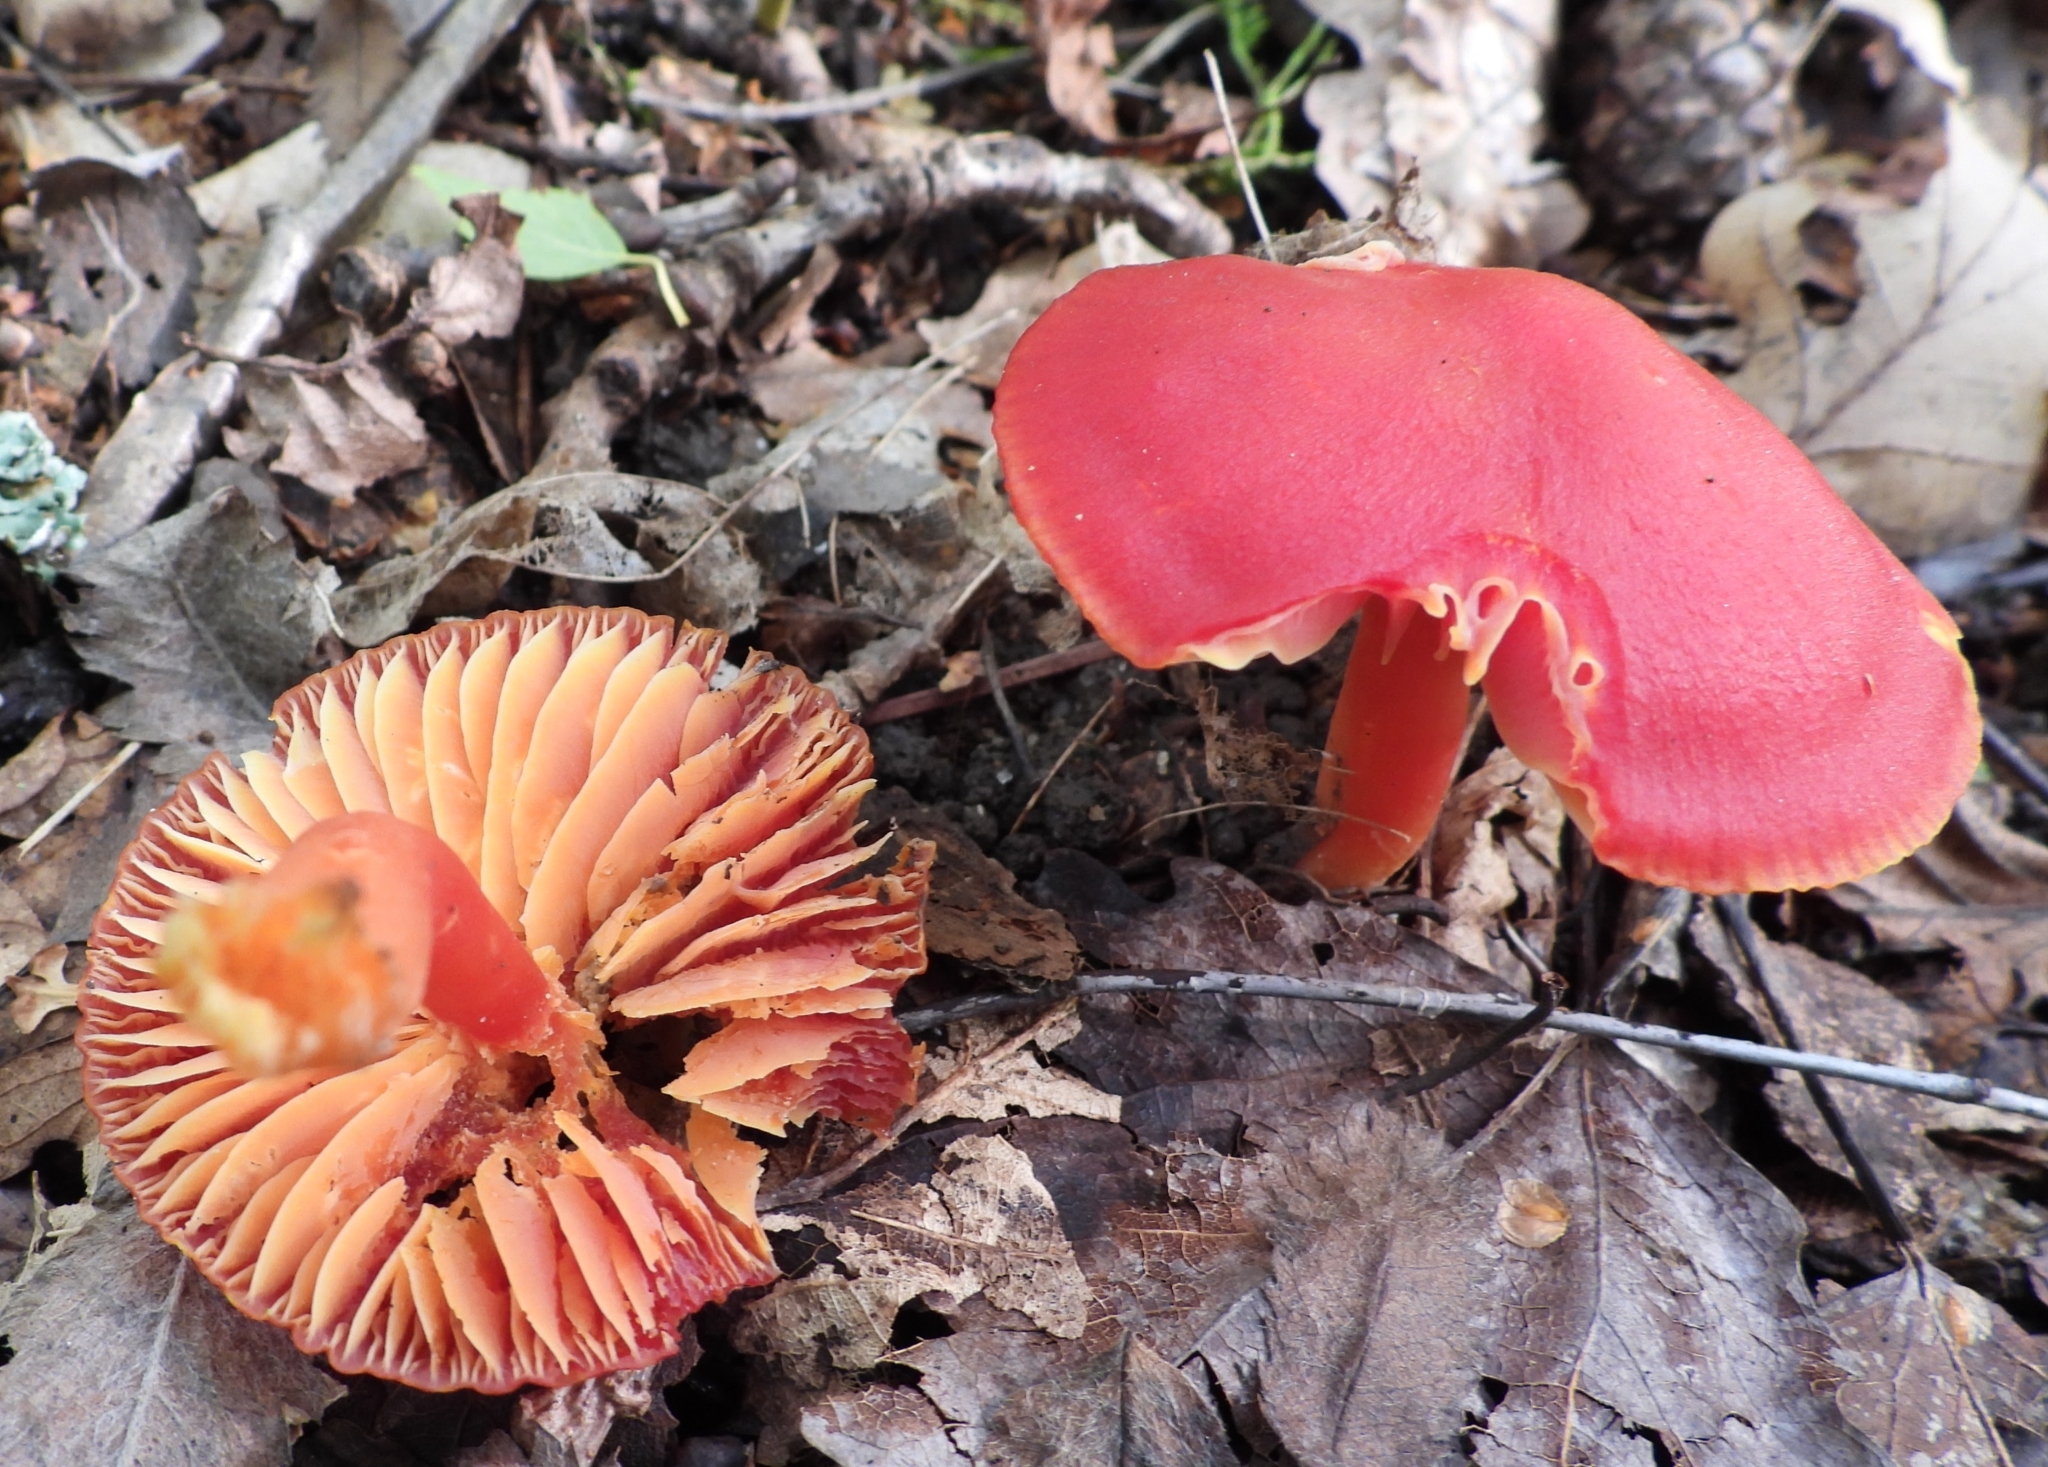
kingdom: Fungi
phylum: Basidiomycota
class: Agaricomycetes
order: Agaricales
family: Hygrophoraceae
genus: Hygrocybe
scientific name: Hygrocybe coccinea
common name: Scarlet hood
